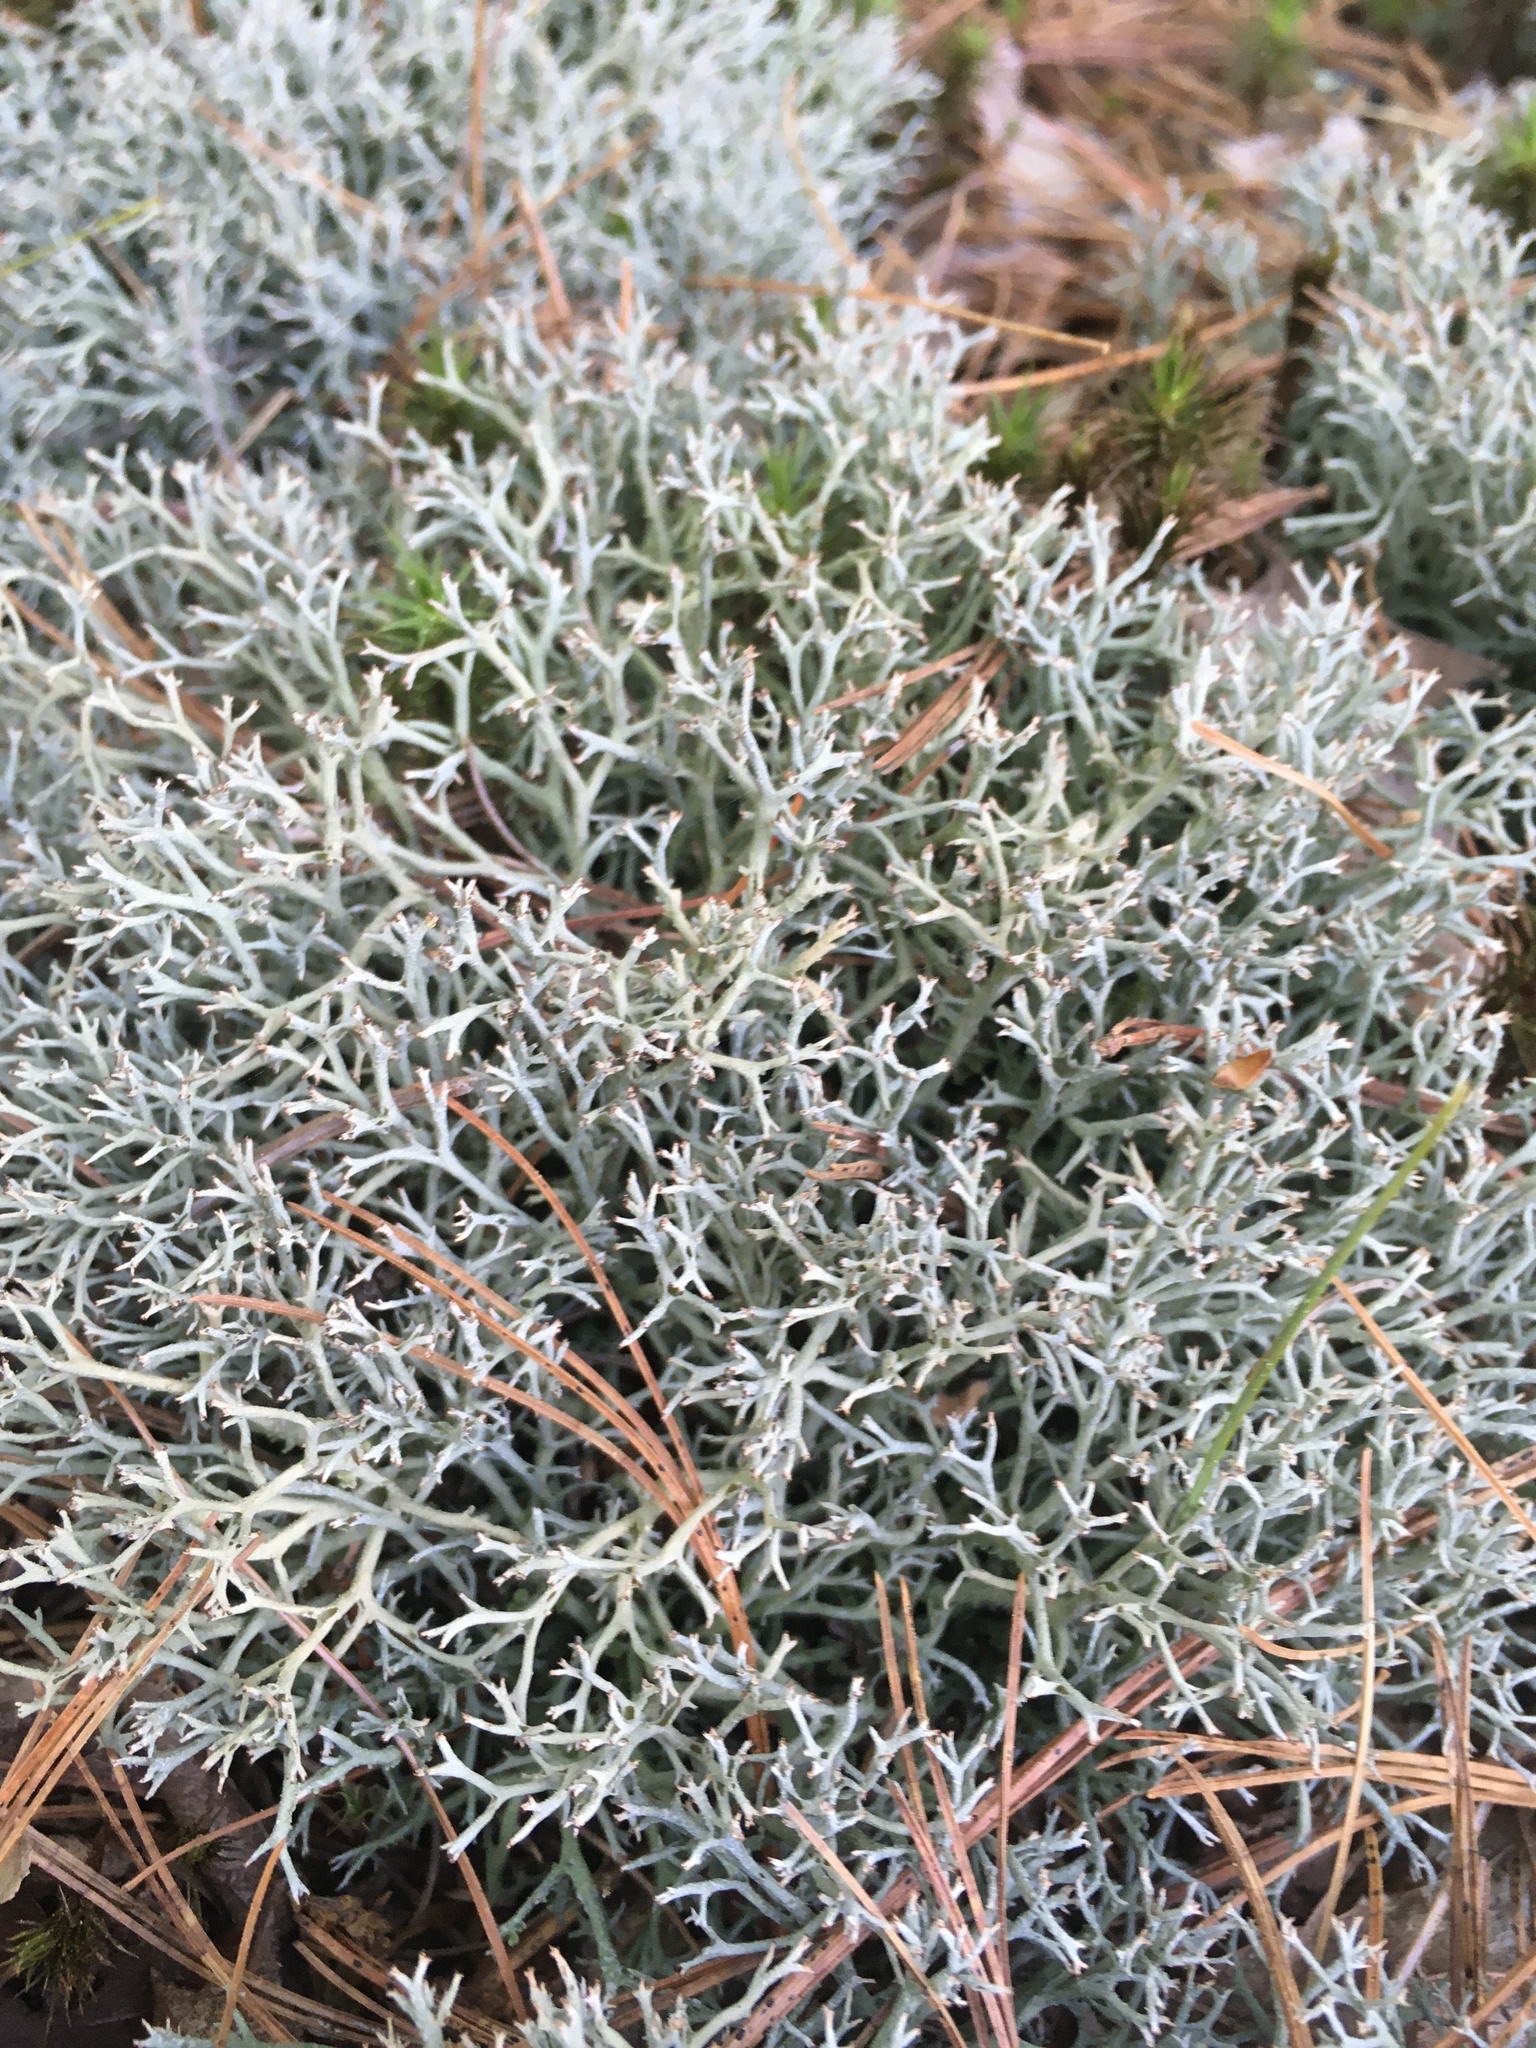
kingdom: Fungi
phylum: Ascomycota
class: Lecanoromycetes
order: Lecanorales
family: Cladoniaceae
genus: Cladonia
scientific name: Cladonia furcata
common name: Many-forked cladonia
